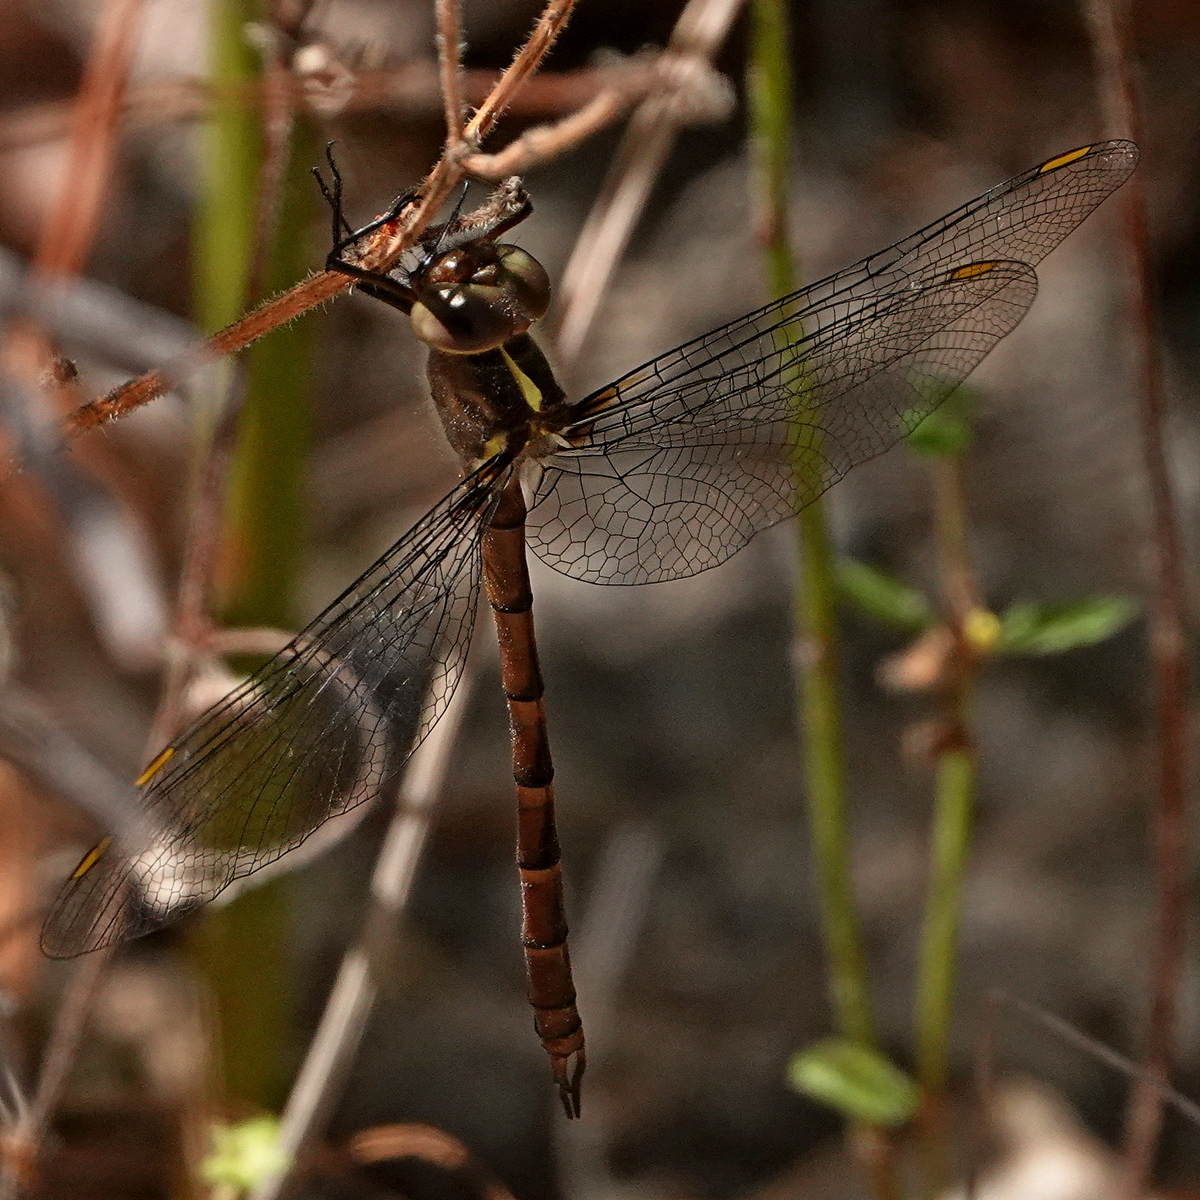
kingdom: Animalia
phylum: Arthropoda
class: Insecta
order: Odonata
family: Corduliidae
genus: Austrocordulia
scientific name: Austrocordulia refracta
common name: Eastern hawk
